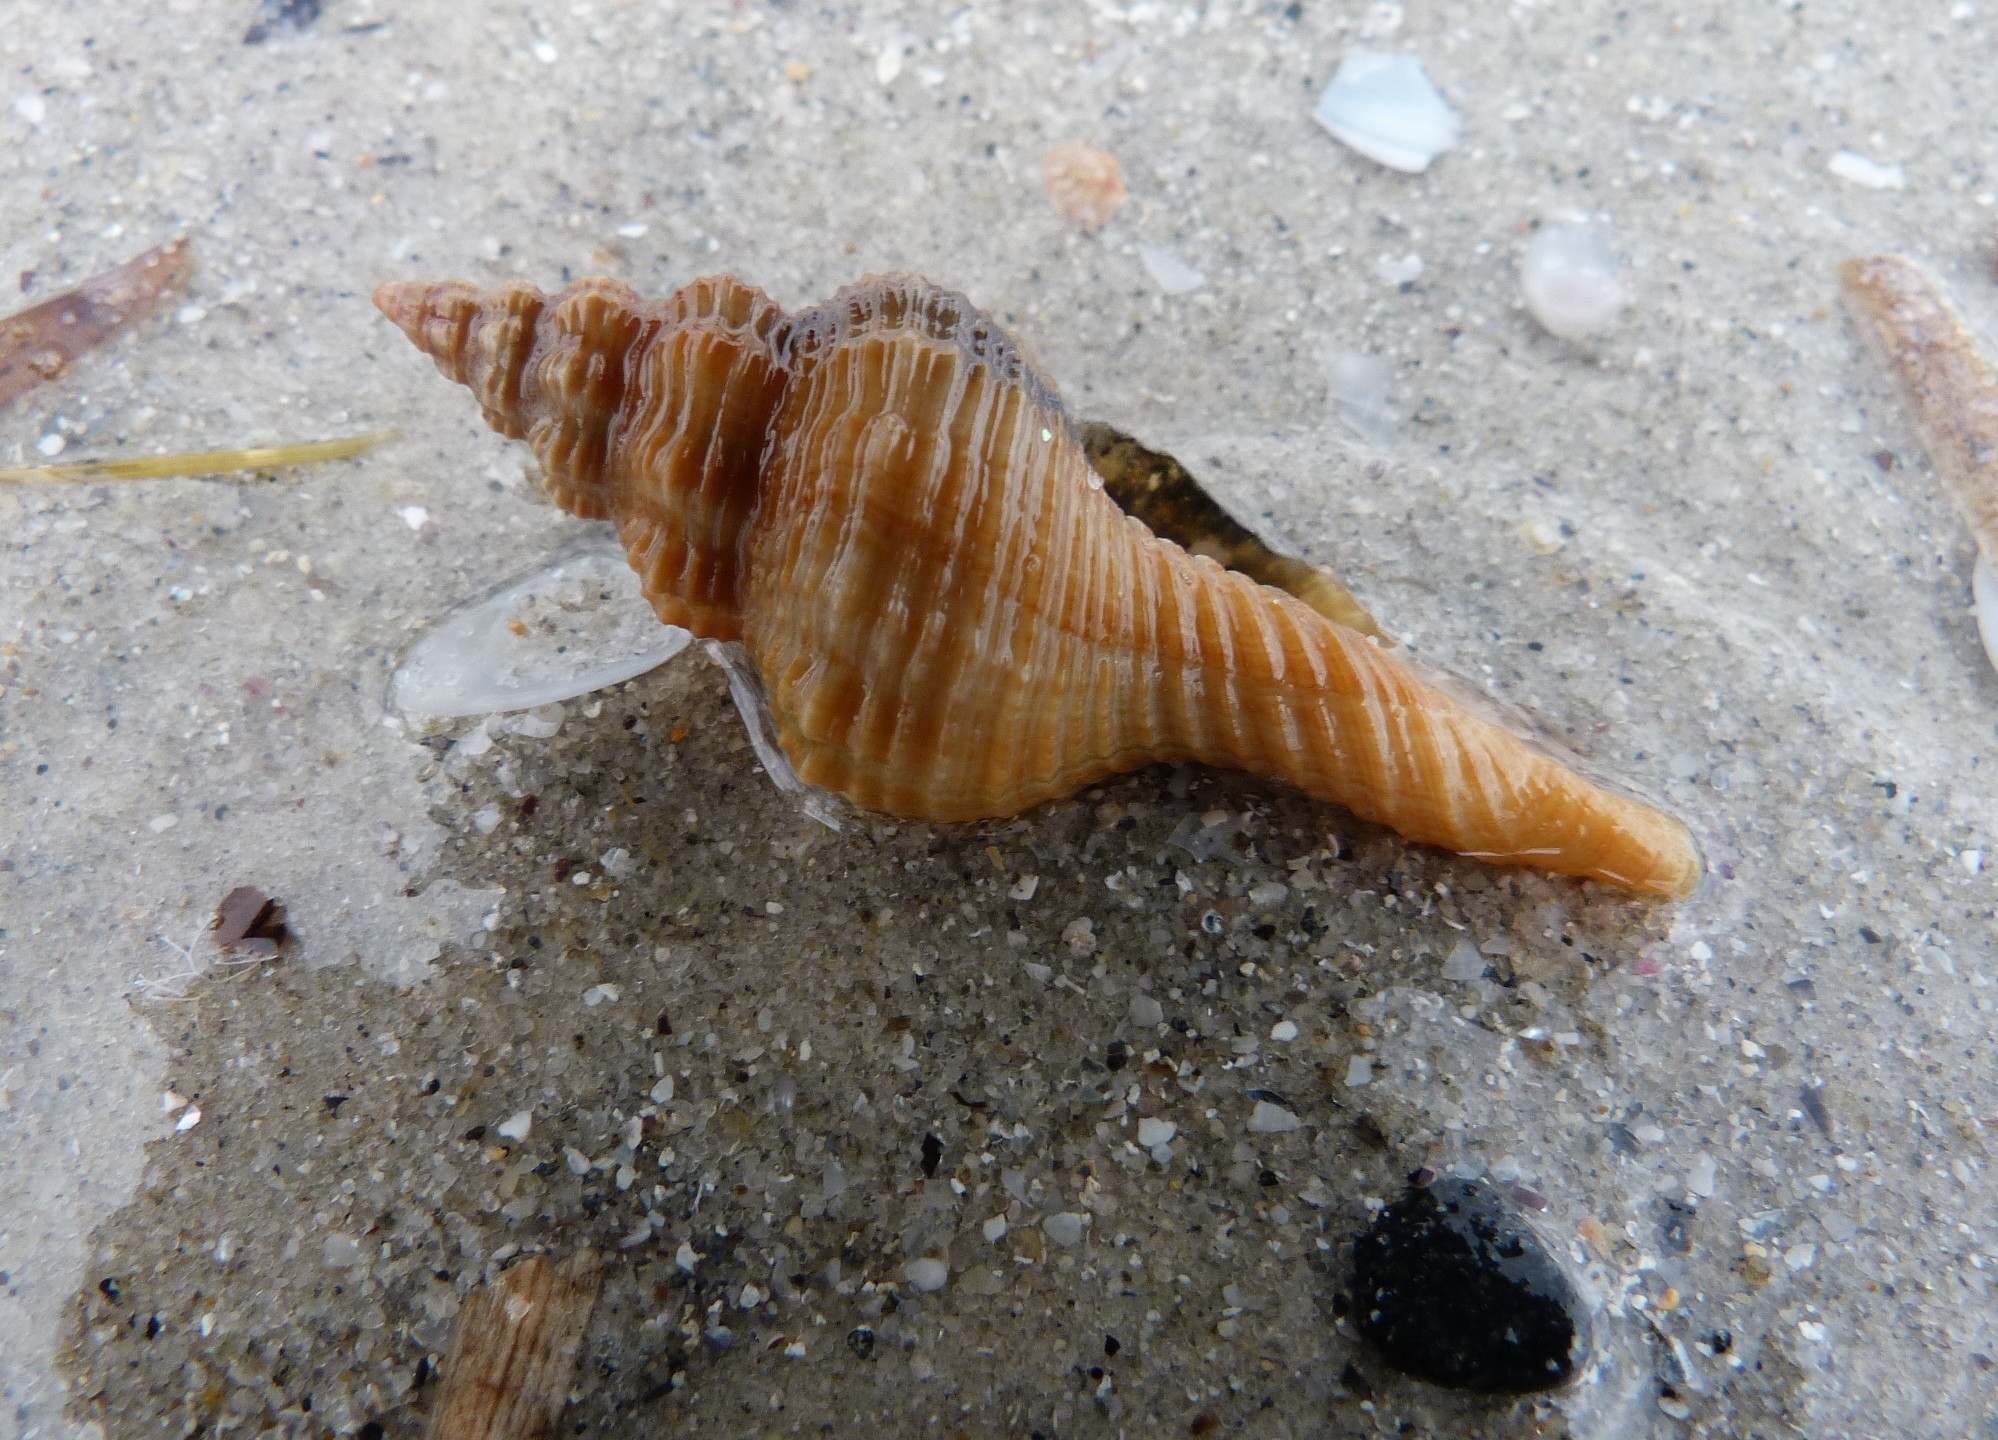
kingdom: Animalia
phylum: Mollusca
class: Gastropoda
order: Neogastropoda
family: Fasciolariidae
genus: Propefusus
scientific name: Propefusus australis
